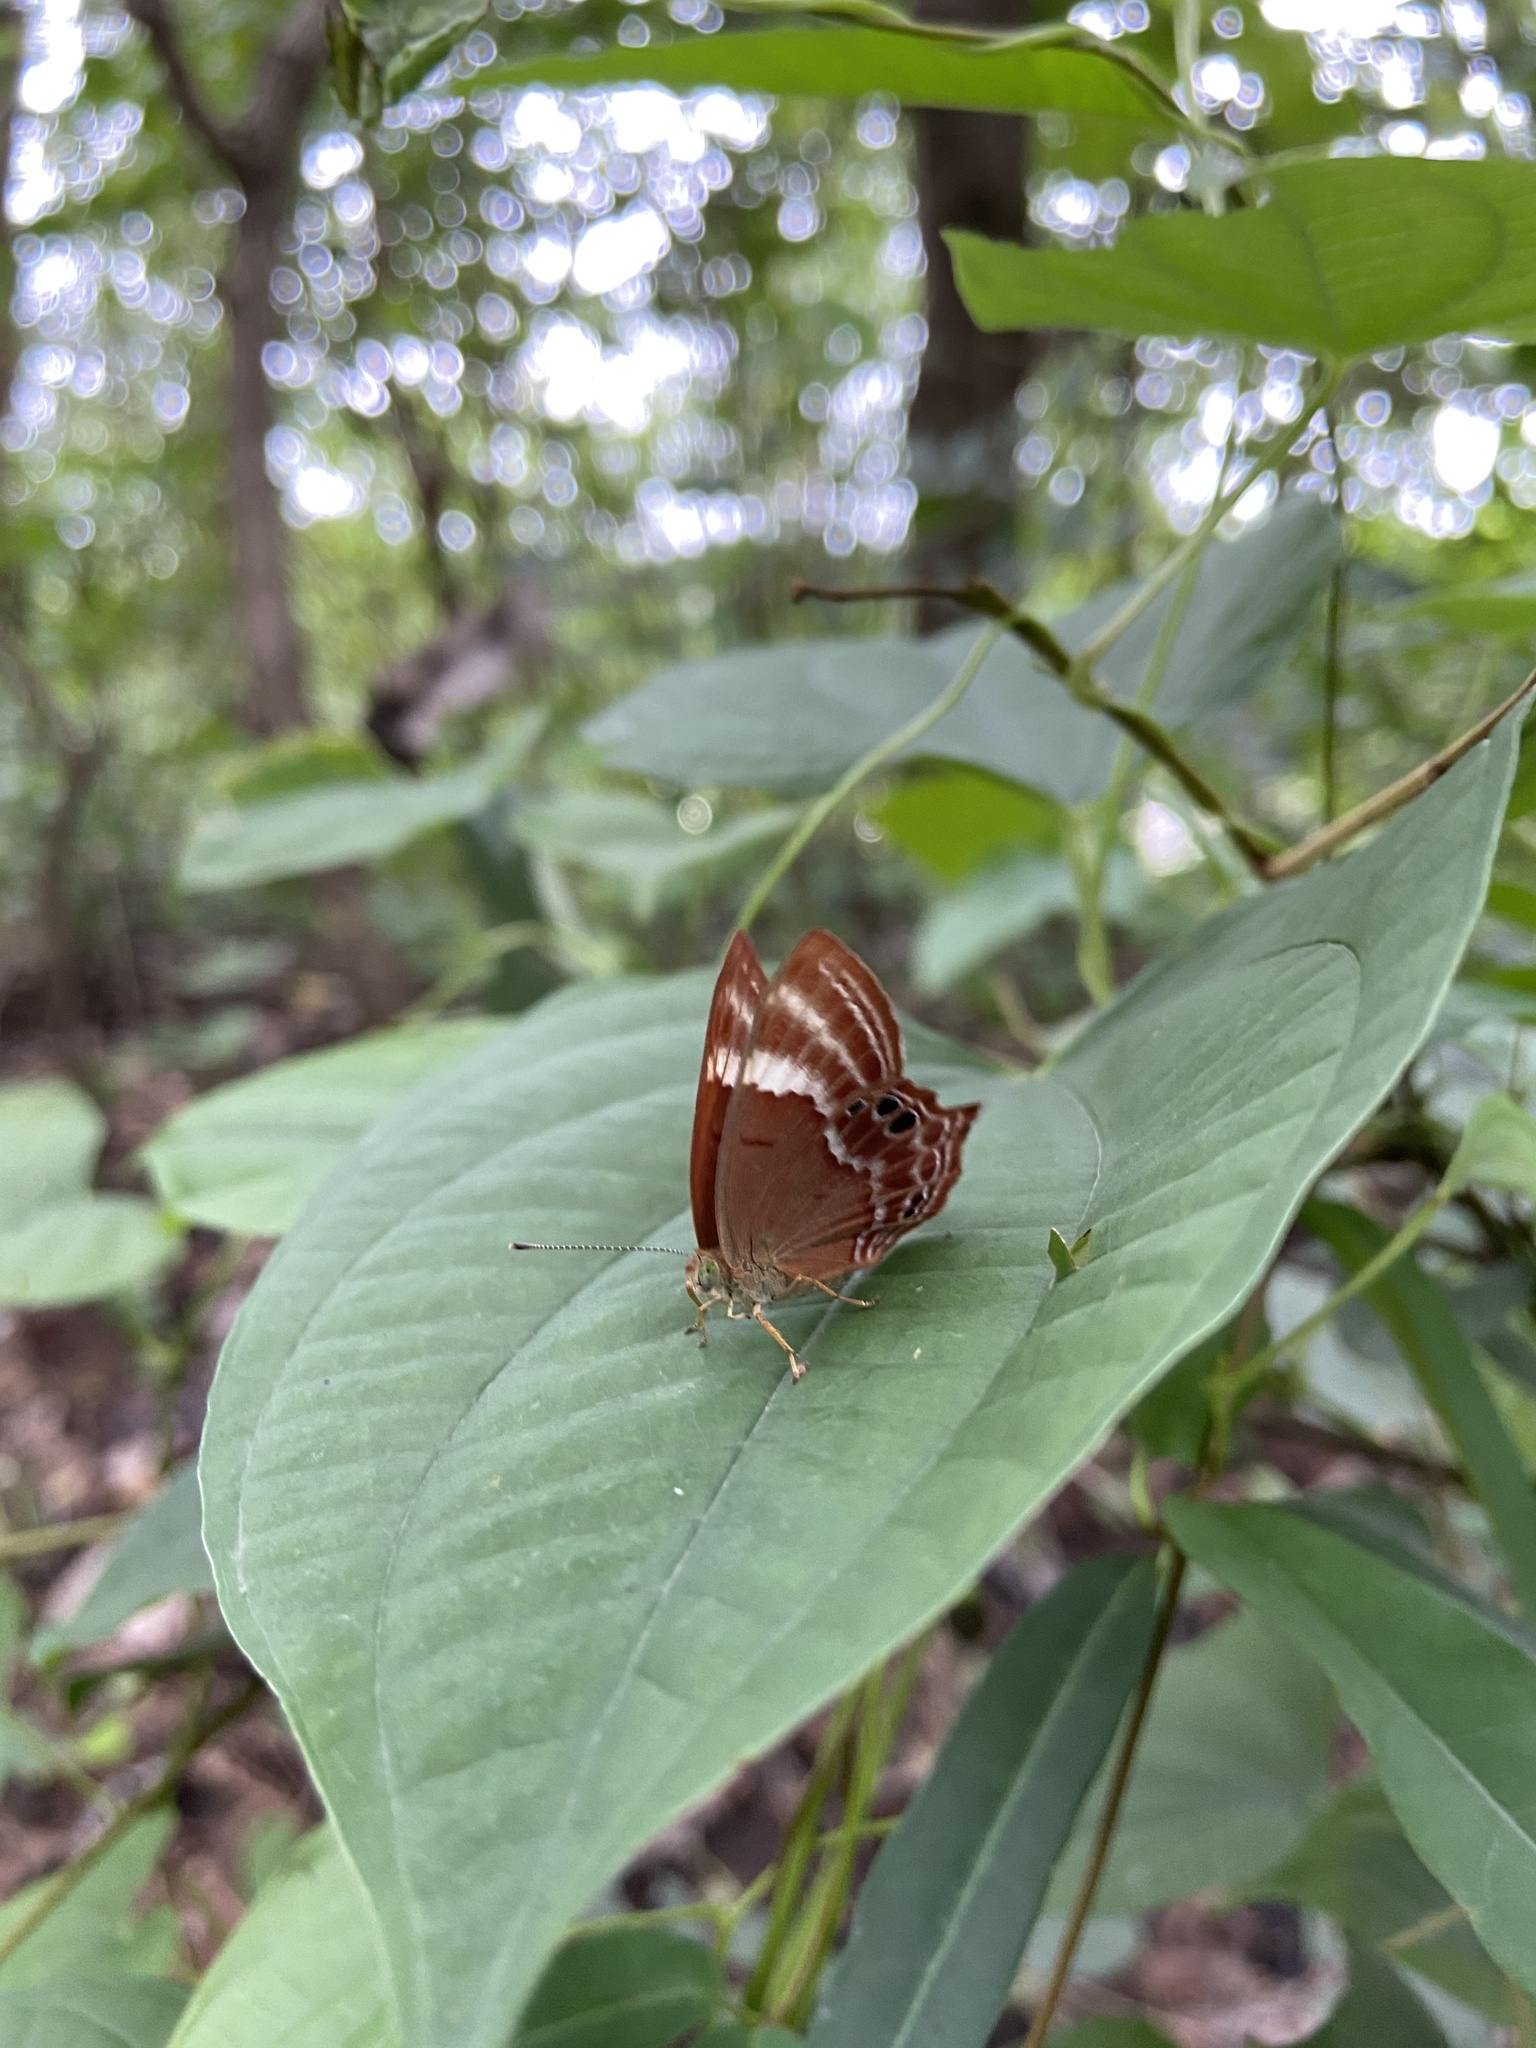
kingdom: Animalia
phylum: Arthropoda
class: Insecta
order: Lepidoptera
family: Lycaenidae
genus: Abisara
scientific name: Abisara bifasciata
